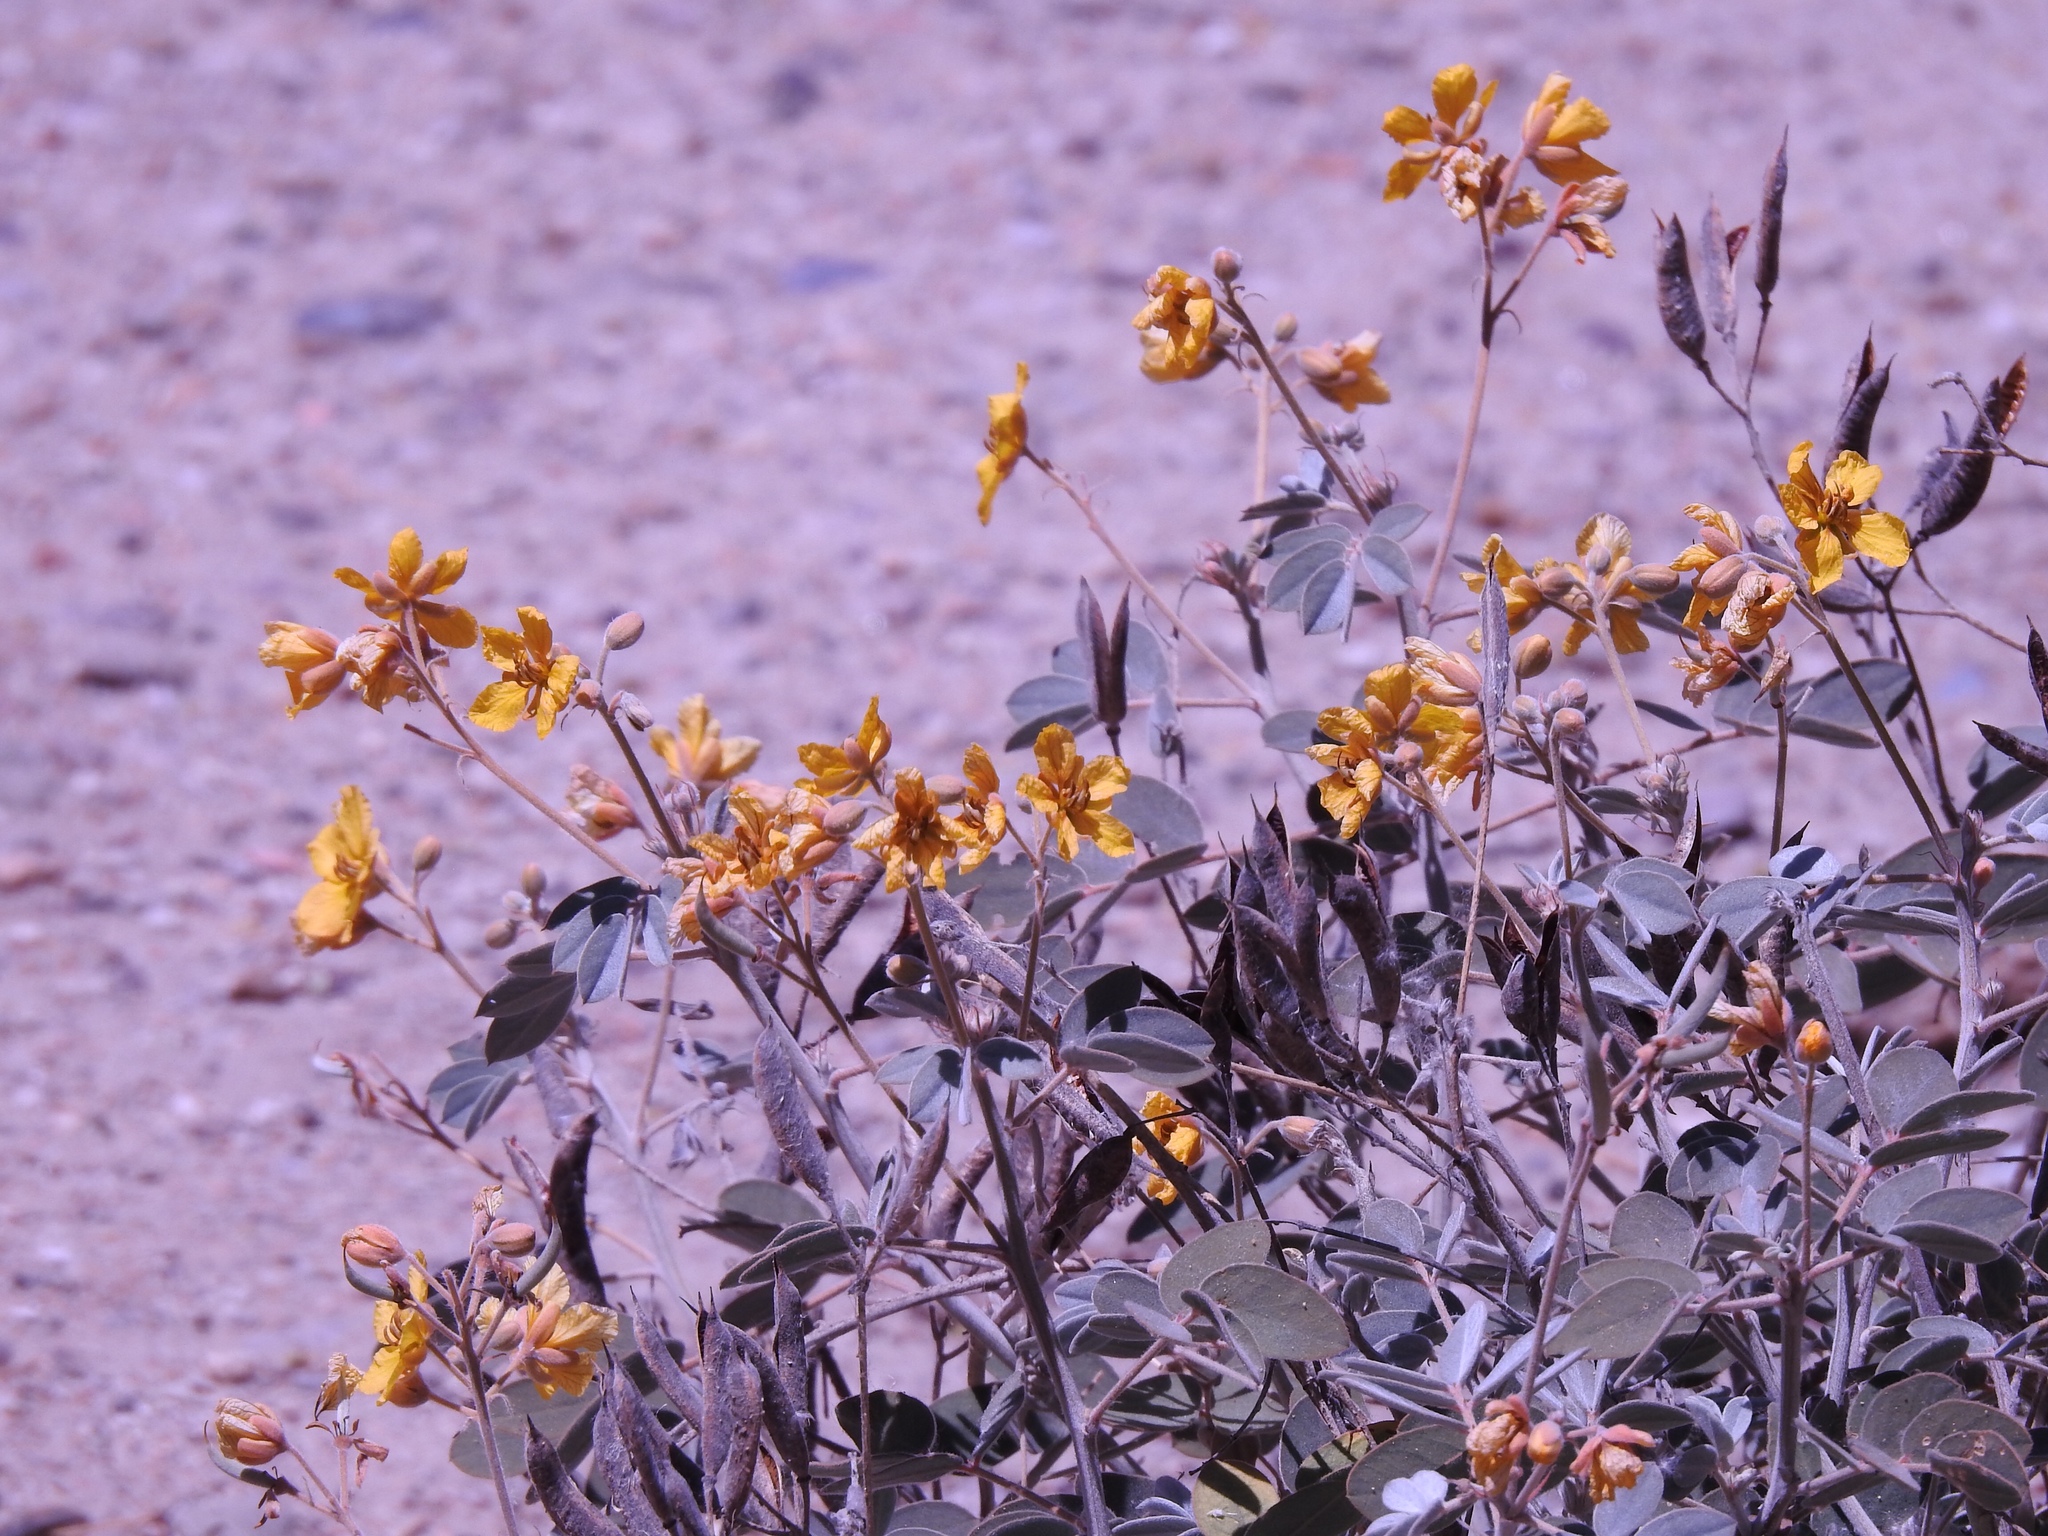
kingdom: Plantae
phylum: Tracheophyta
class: Magnoliopsida
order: Fabales
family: Fabaceae
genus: Senna
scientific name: Senna covesii
